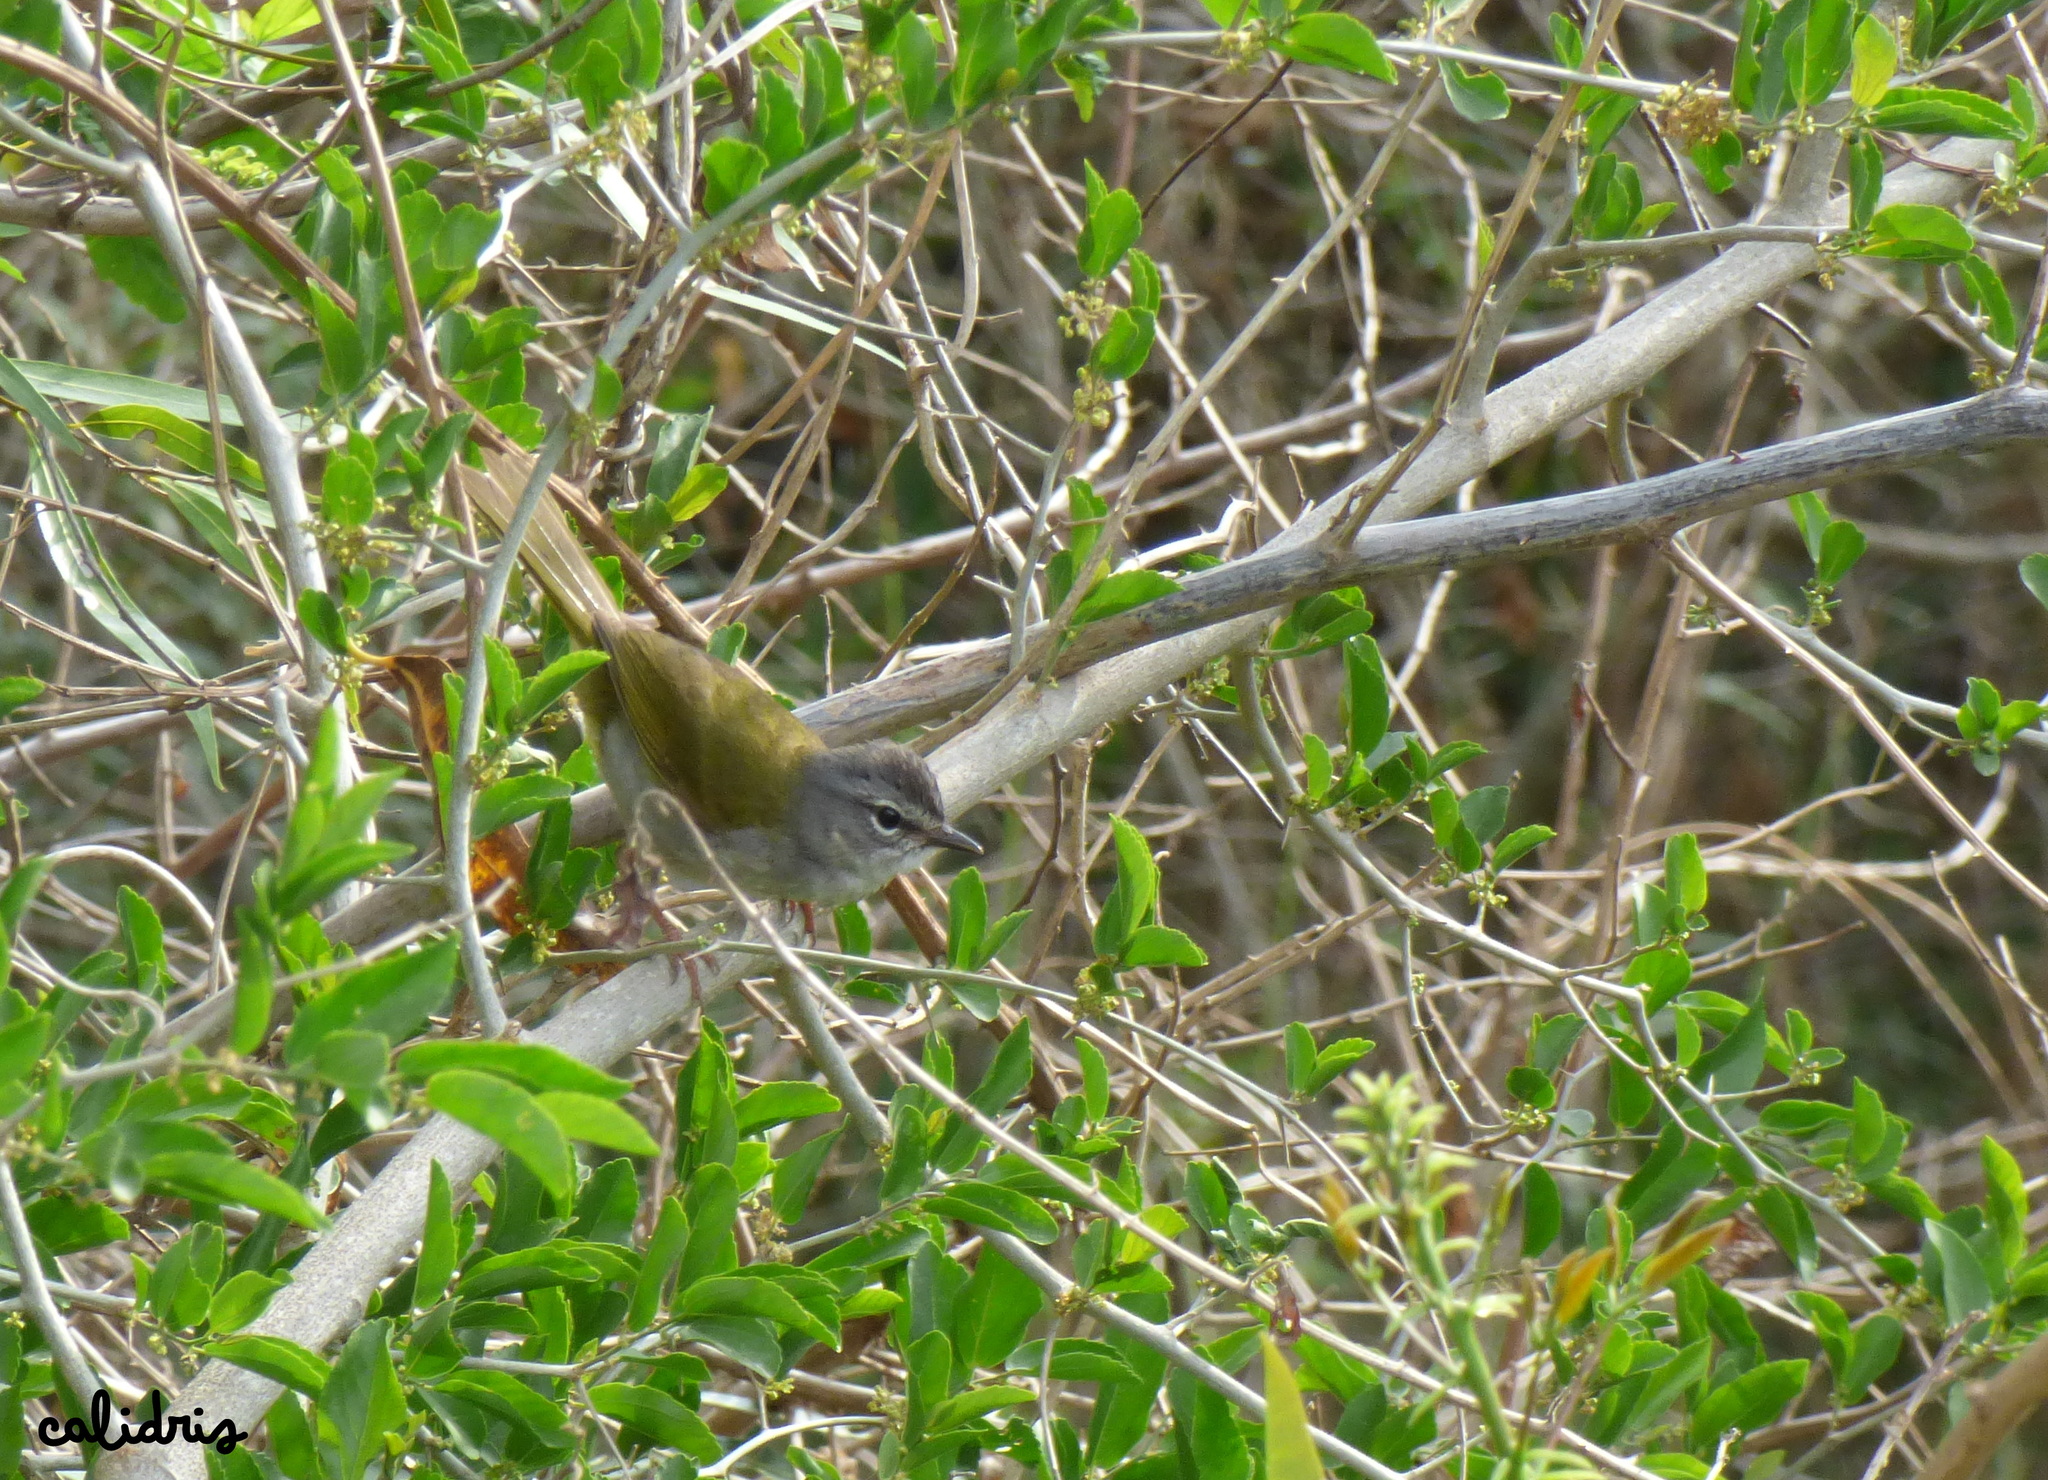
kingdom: Animalia
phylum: Chordata
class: Aves
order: Passeriformes
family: Parulidae
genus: Myiothlypis
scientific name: Myiothlypis leucoblephara
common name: White-rimmed warbler
